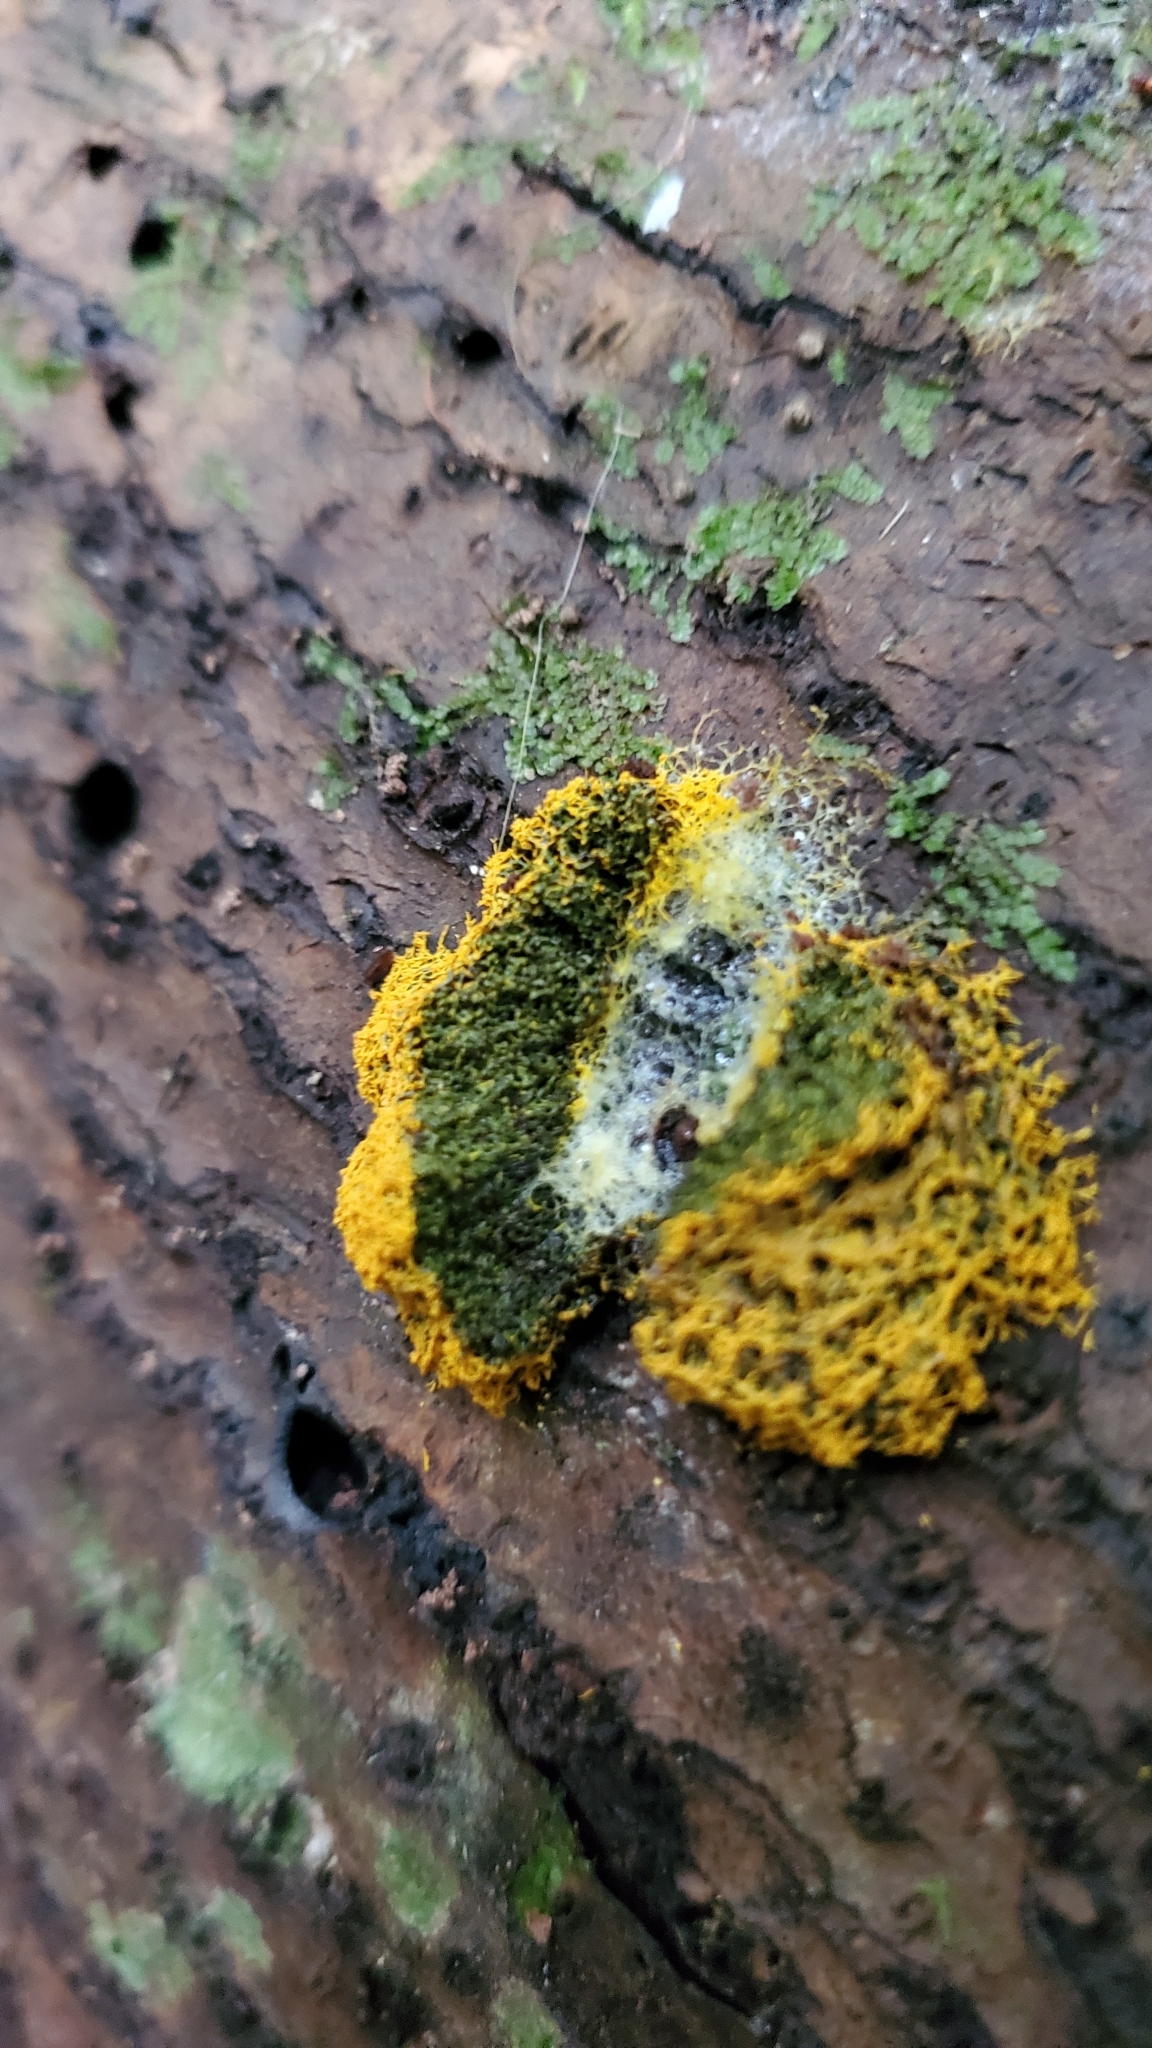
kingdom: Protozoa
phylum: Mycetozoa
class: Myxomycetes
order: Physarales
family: Physaraceae
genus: Fuligo
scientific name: Fuligo septica
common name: Dog vomit slime mold
